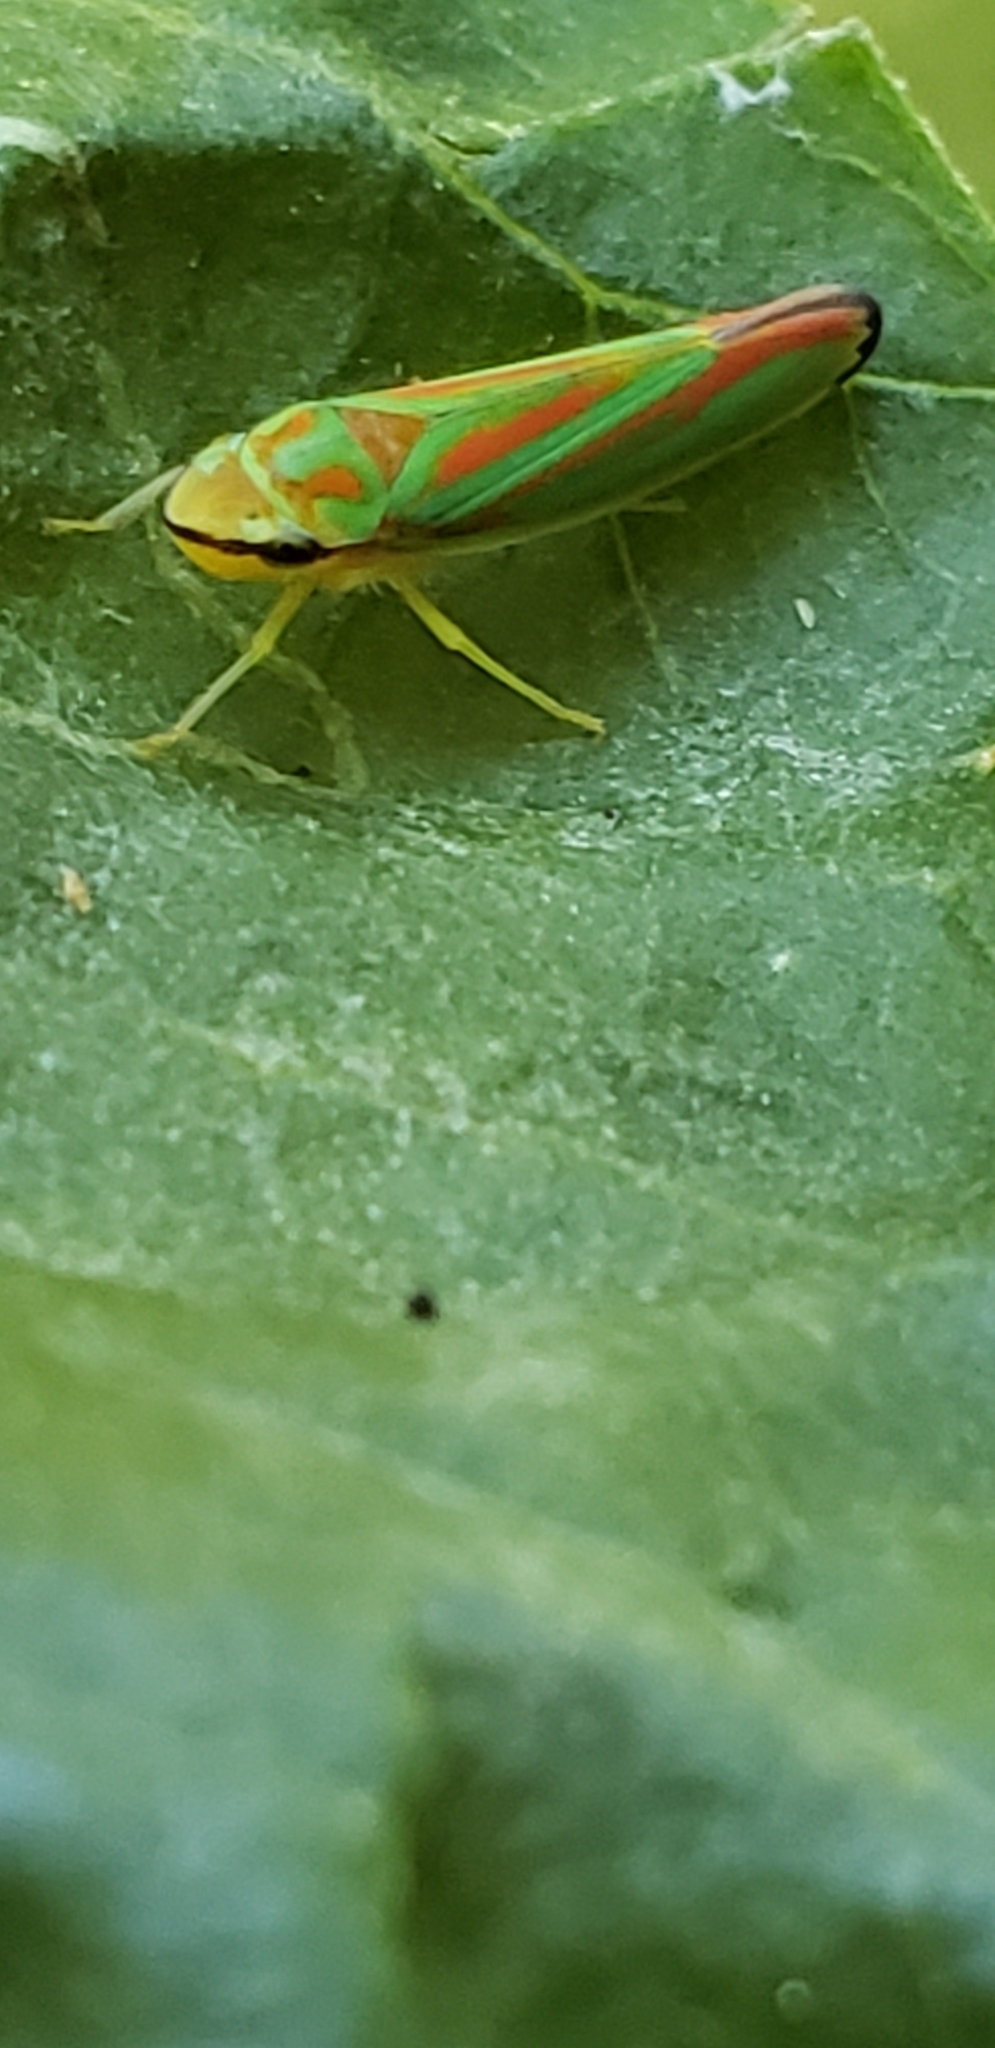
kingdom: Animalia
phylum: Arthropoda
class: Insecta
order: Hemiptera
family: Cicadellidae
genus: Graphocephala
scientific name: Graphocephala coccinea
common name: Candy-striped leafhopper
